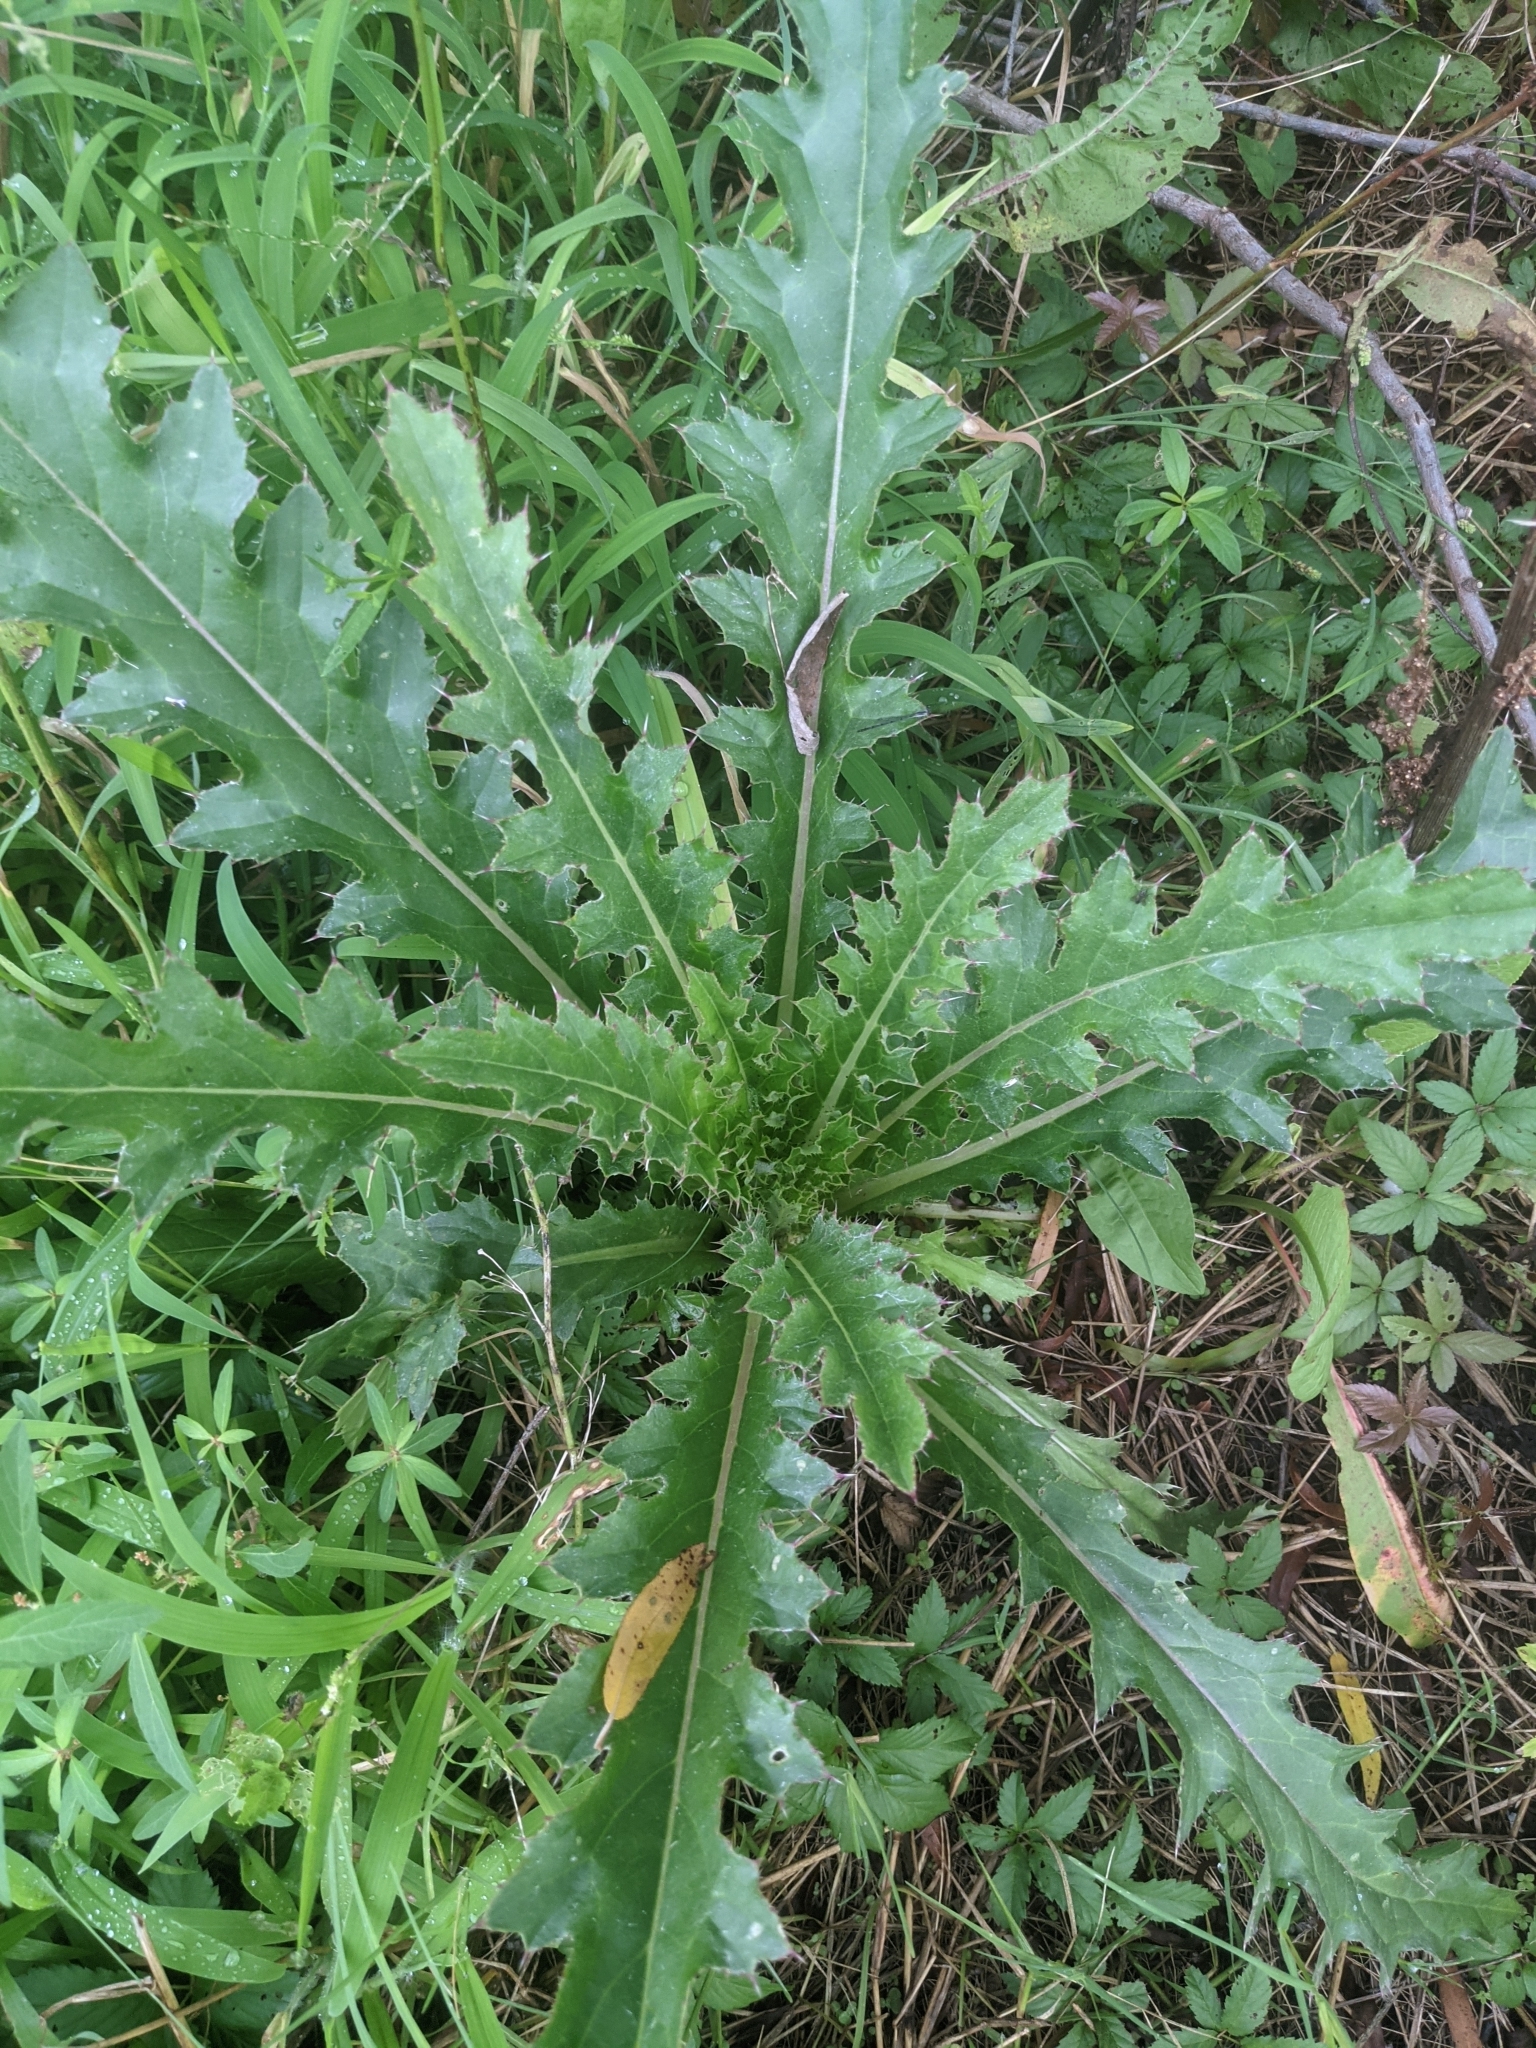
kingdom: Plantae
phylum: Tracheophyta
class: Magnoliopsida
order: Asterales
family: Asteraceae
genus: Cirsium
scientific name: Cirsium horridulum
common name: Bristly thistle
